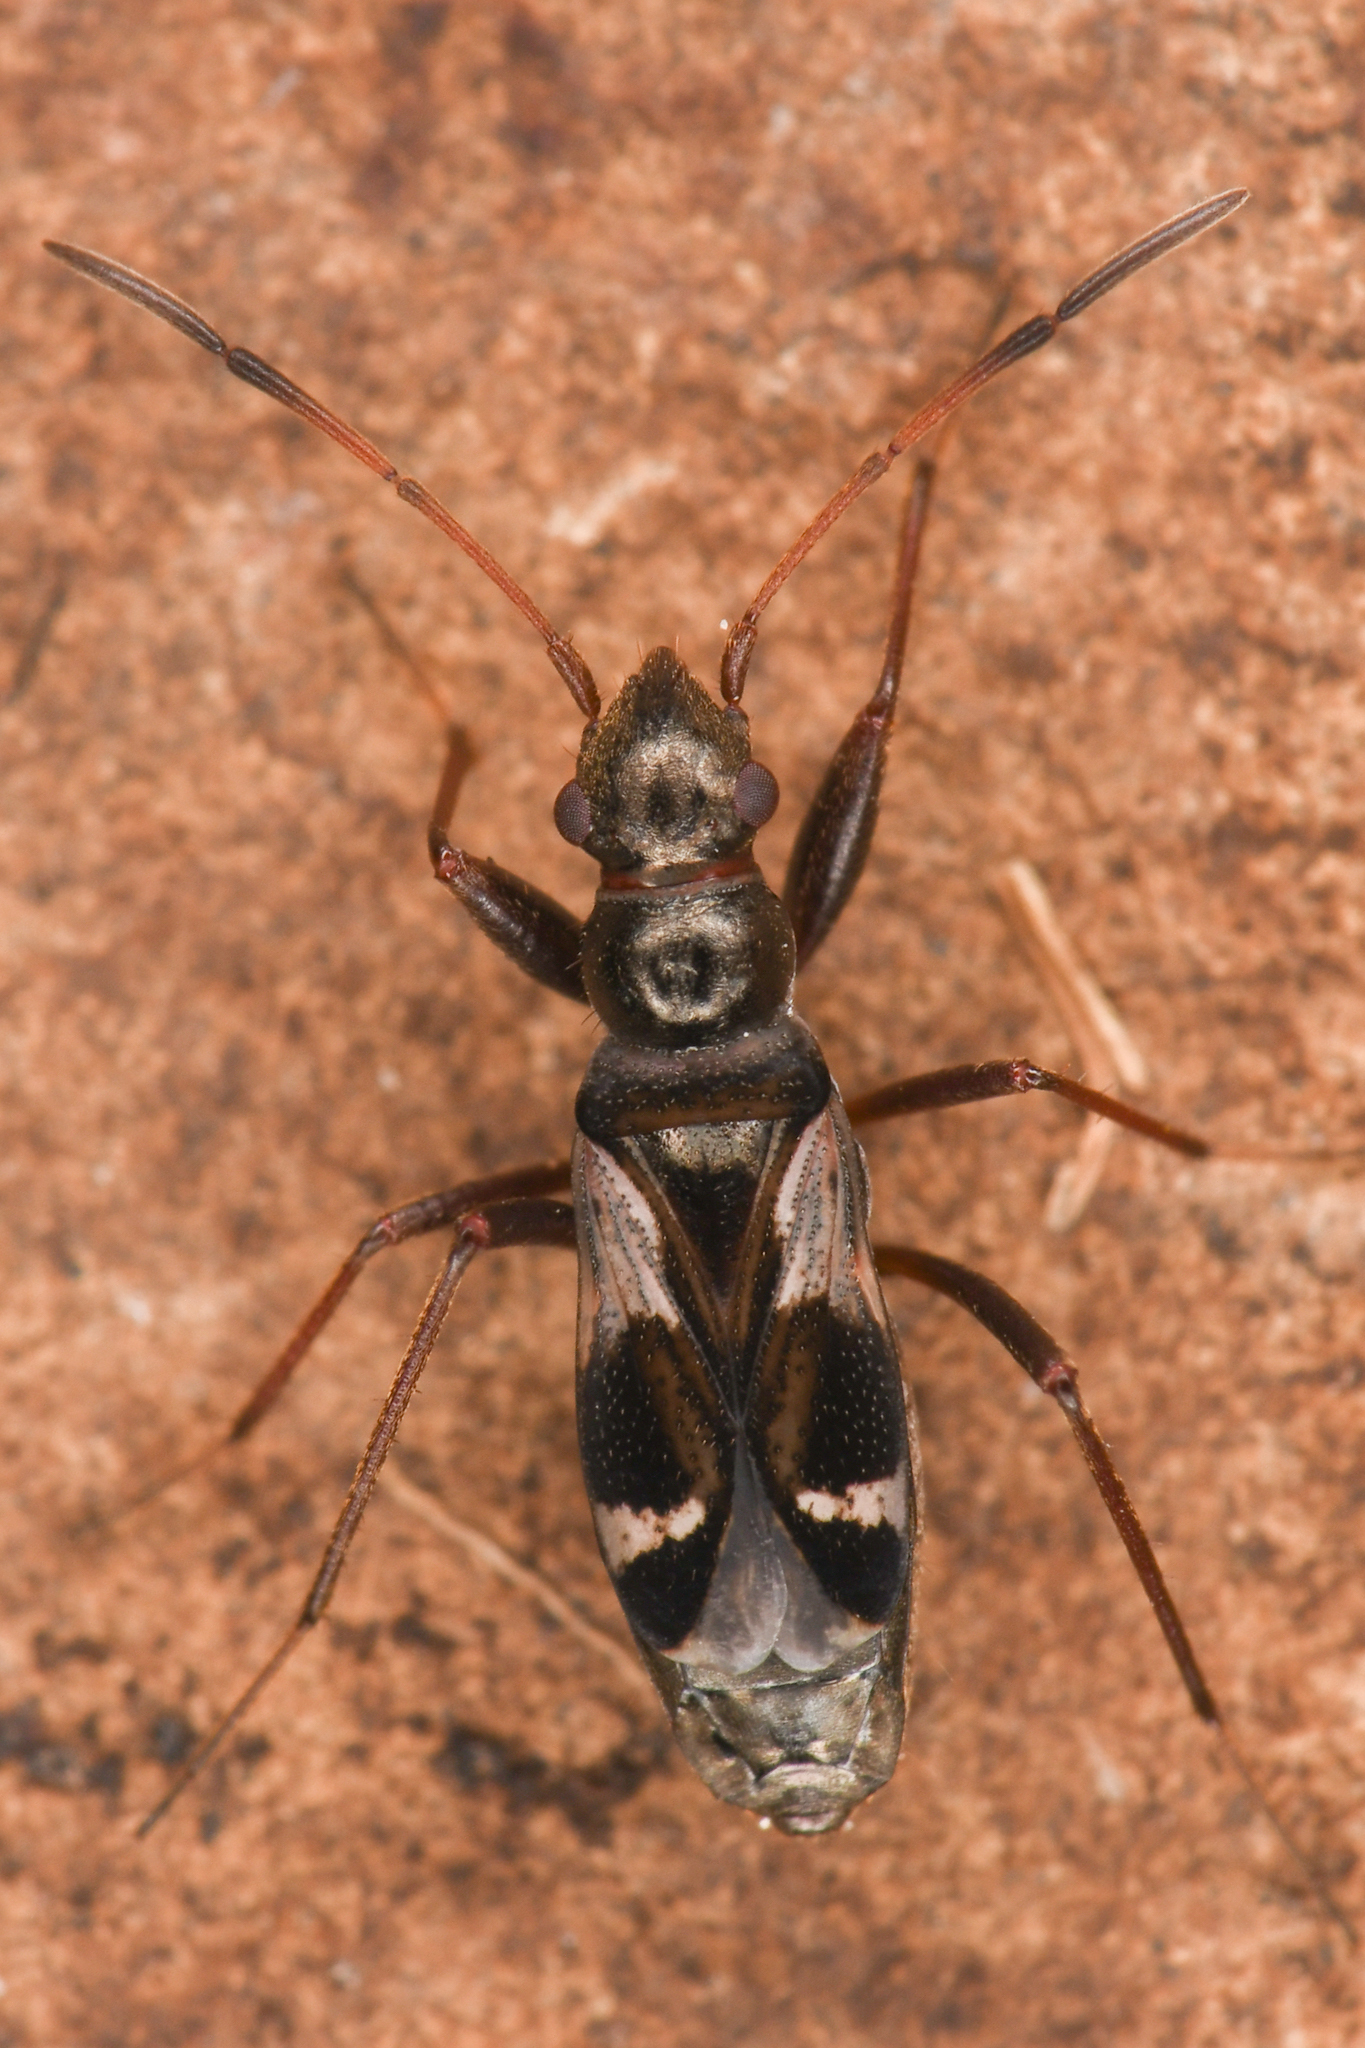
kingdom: Animalia
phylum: Arthropoda
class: Insecta
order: Hemiptera
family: Rhyparochromidae
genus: Slaterobius
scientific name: Slaterobius insignis
